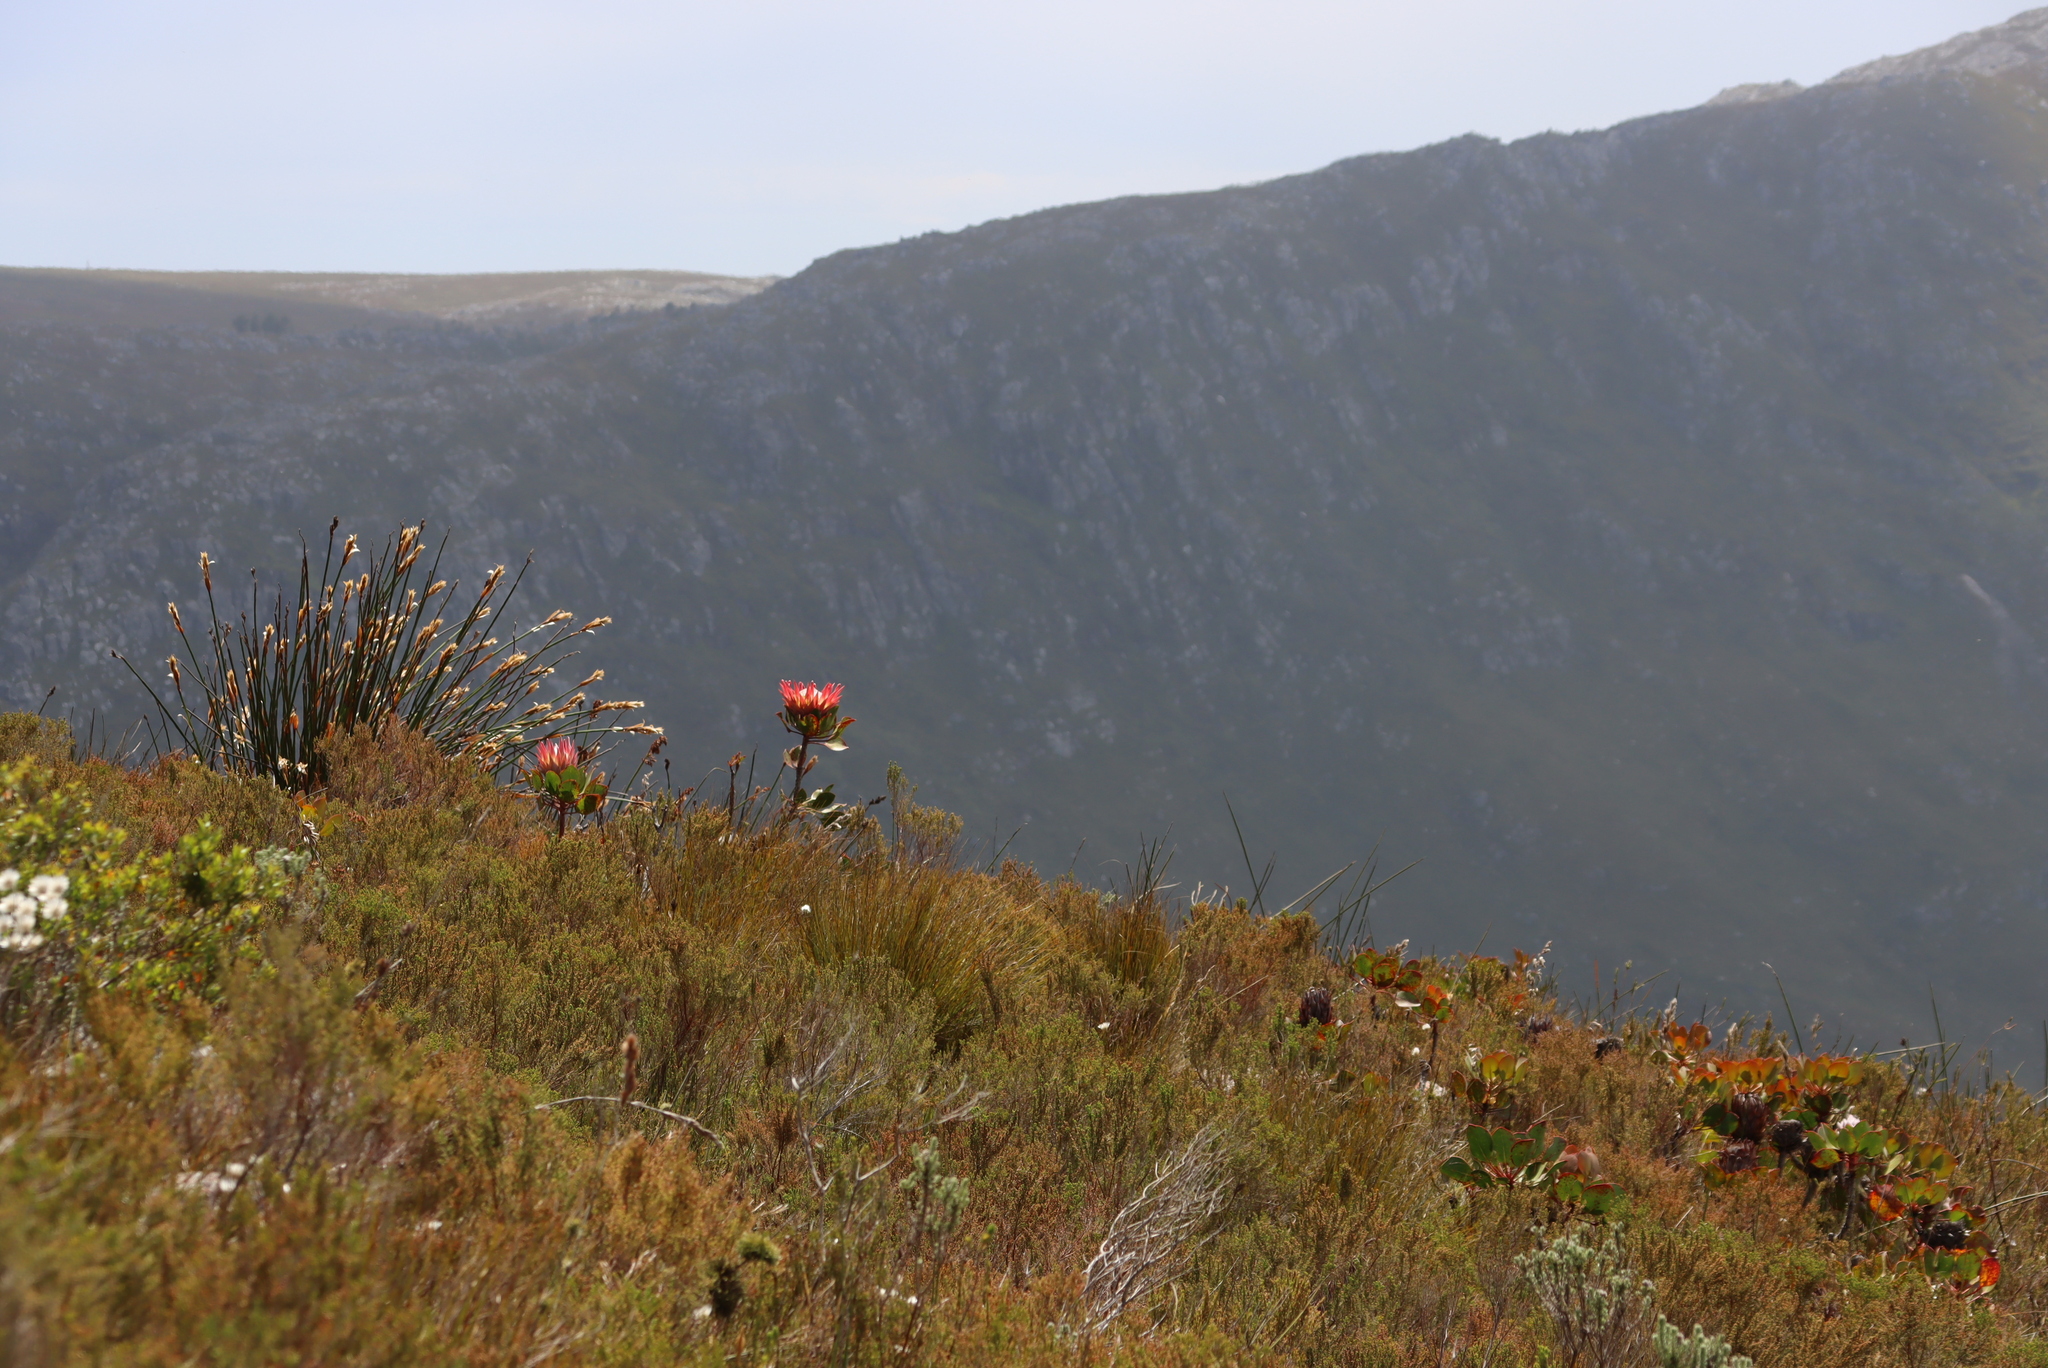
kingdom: Plantae
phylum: Tracheophyta
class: Magnoliopsida
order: Proteales
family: Proteaceae
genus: Protea
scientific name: Protea cynaroides
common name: King protea
